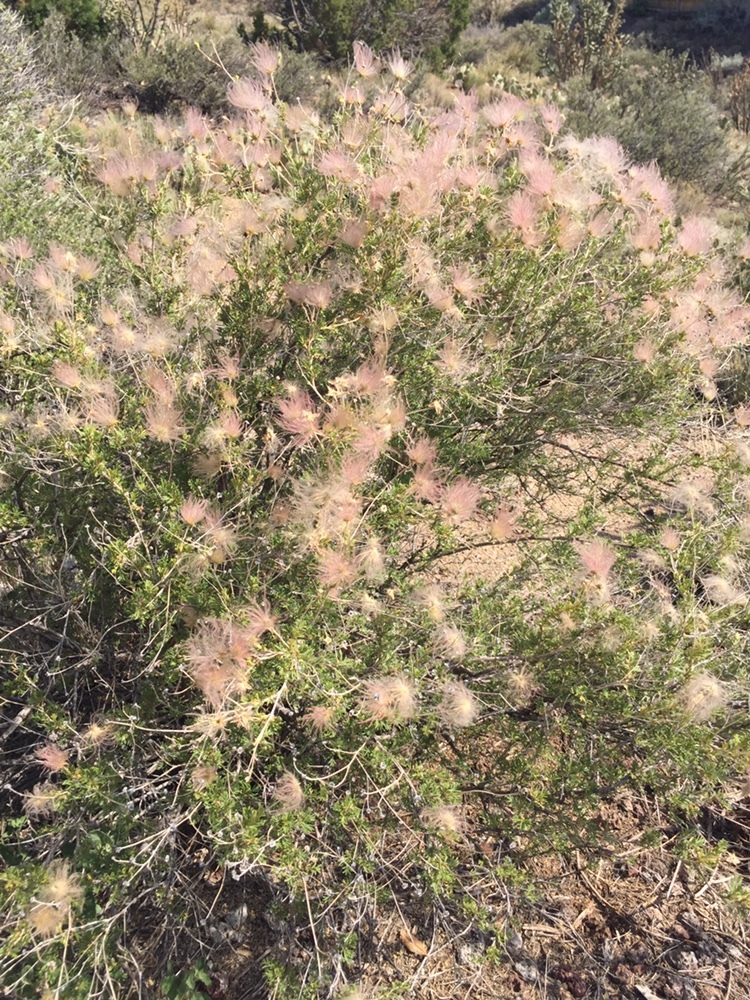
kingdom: Plantae
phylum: Tracheophyta
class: Magnoliopsida
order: Rosales
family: Rosaceae
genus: Fallugia
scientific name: Fallugia paradoxa
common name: Apache-plume
